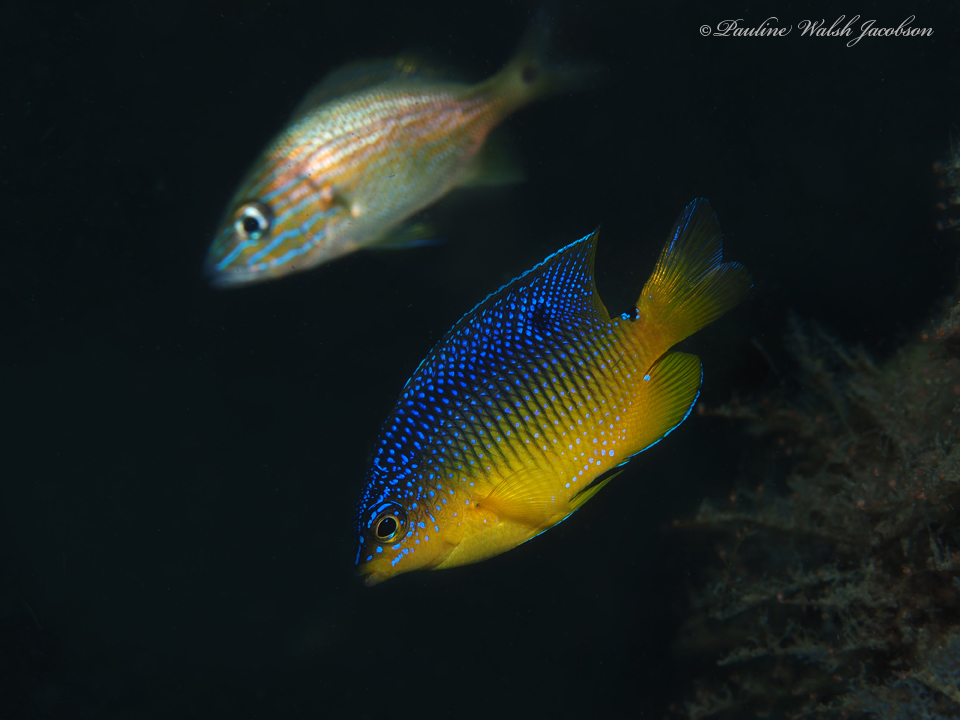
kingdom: Animalia
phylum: Chordata
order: Perciformes
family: Pomacentridae
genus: Stegastes
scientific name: Stegastes xanthurus
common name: Cocoa damselfish
